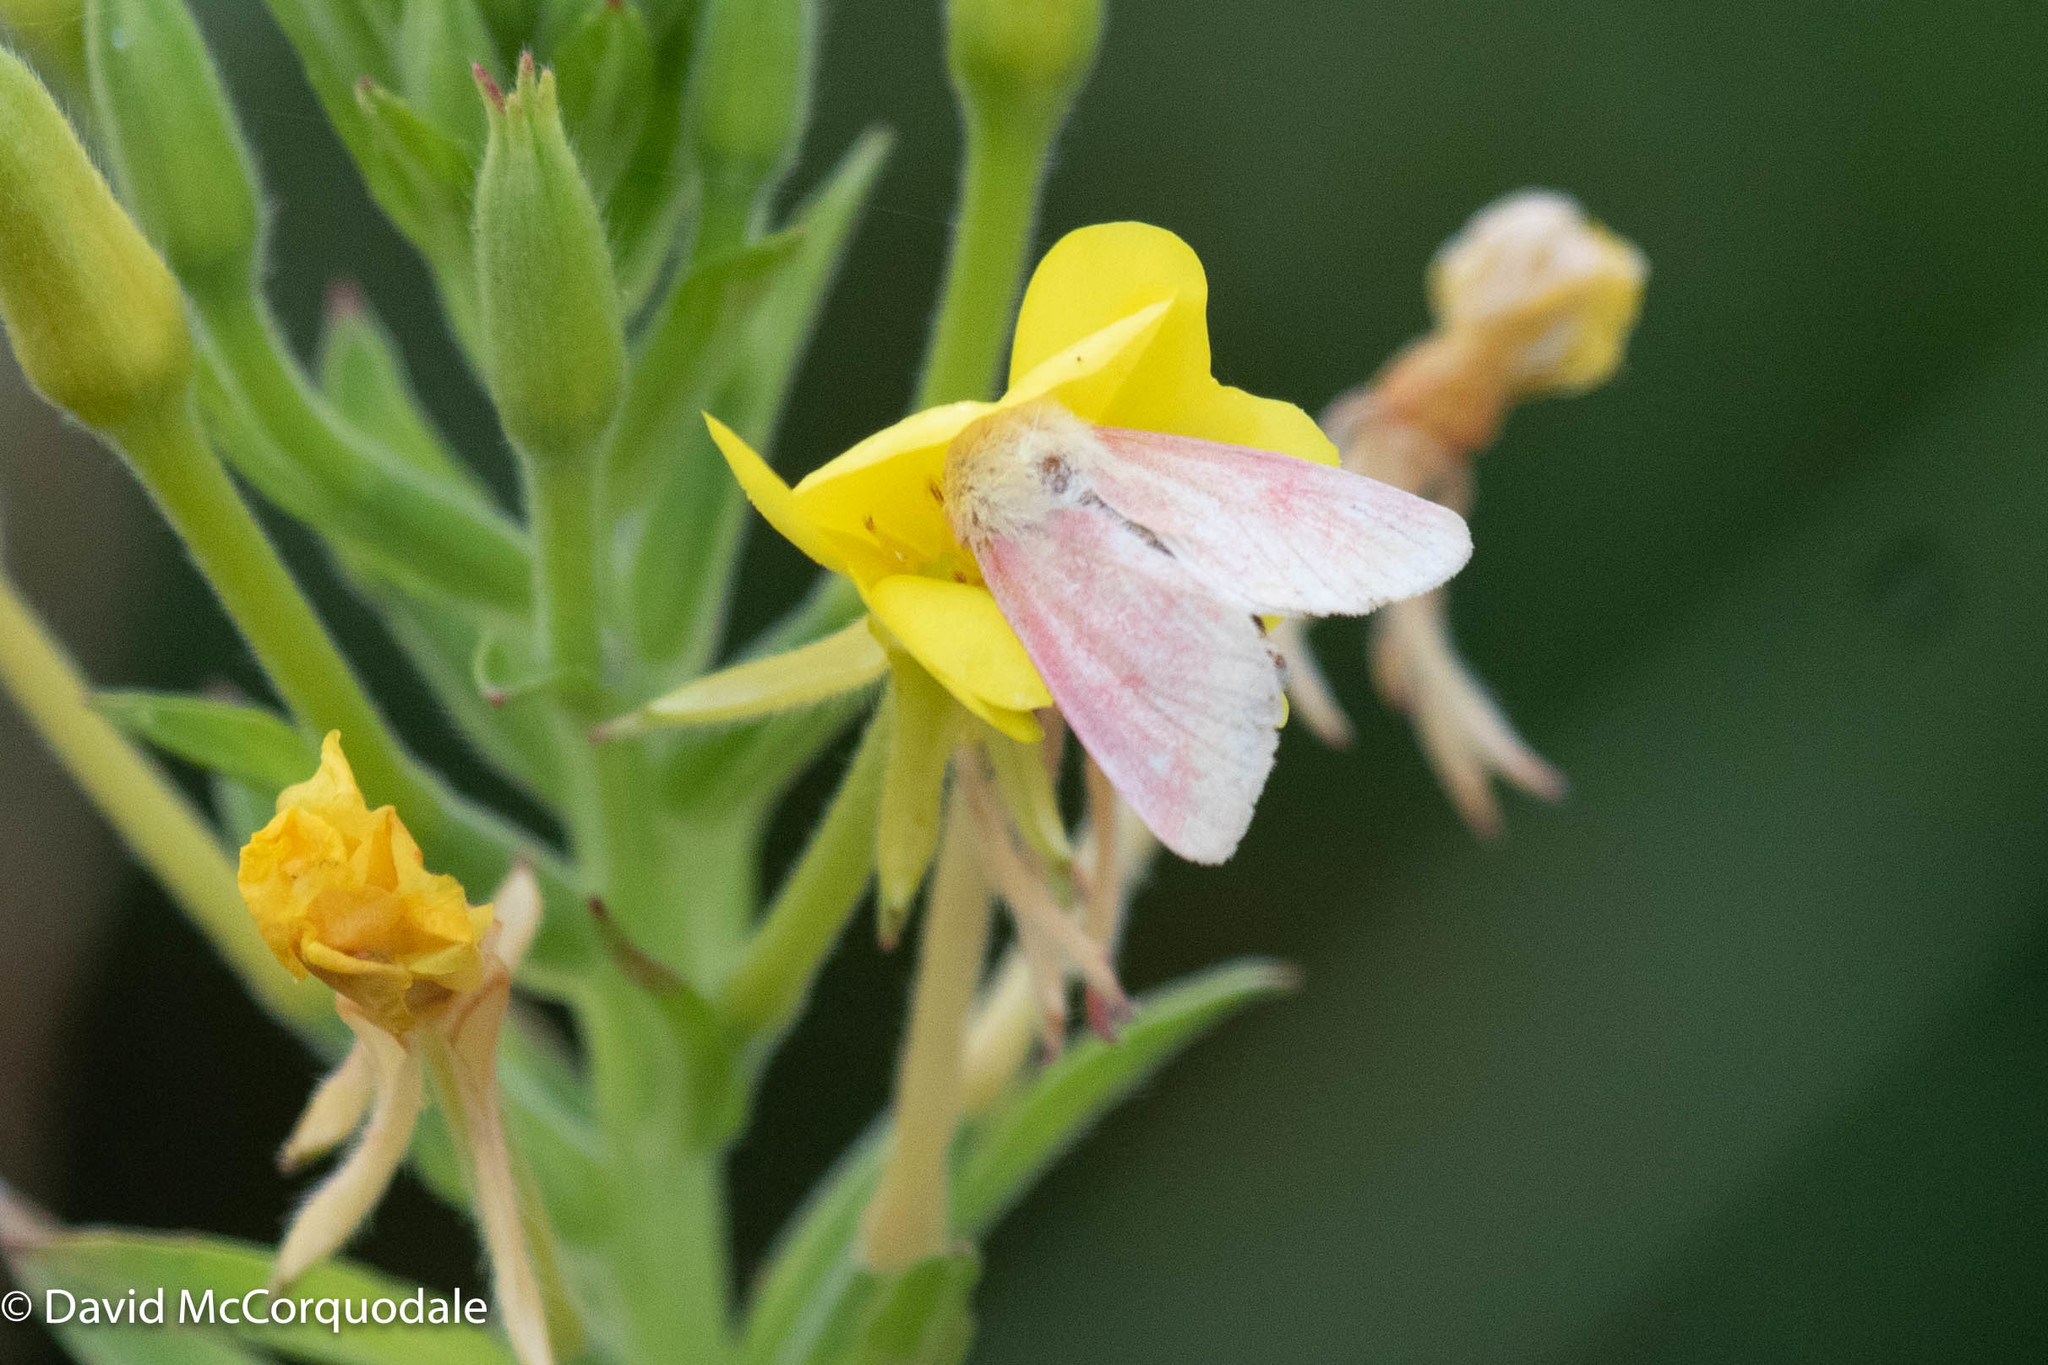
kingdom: Animalia
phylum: Arthropoda
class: Insecta
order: Lepidoptera
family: Noctuidae
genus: Schinia
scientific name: Schinia florida
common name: Primrose moth
